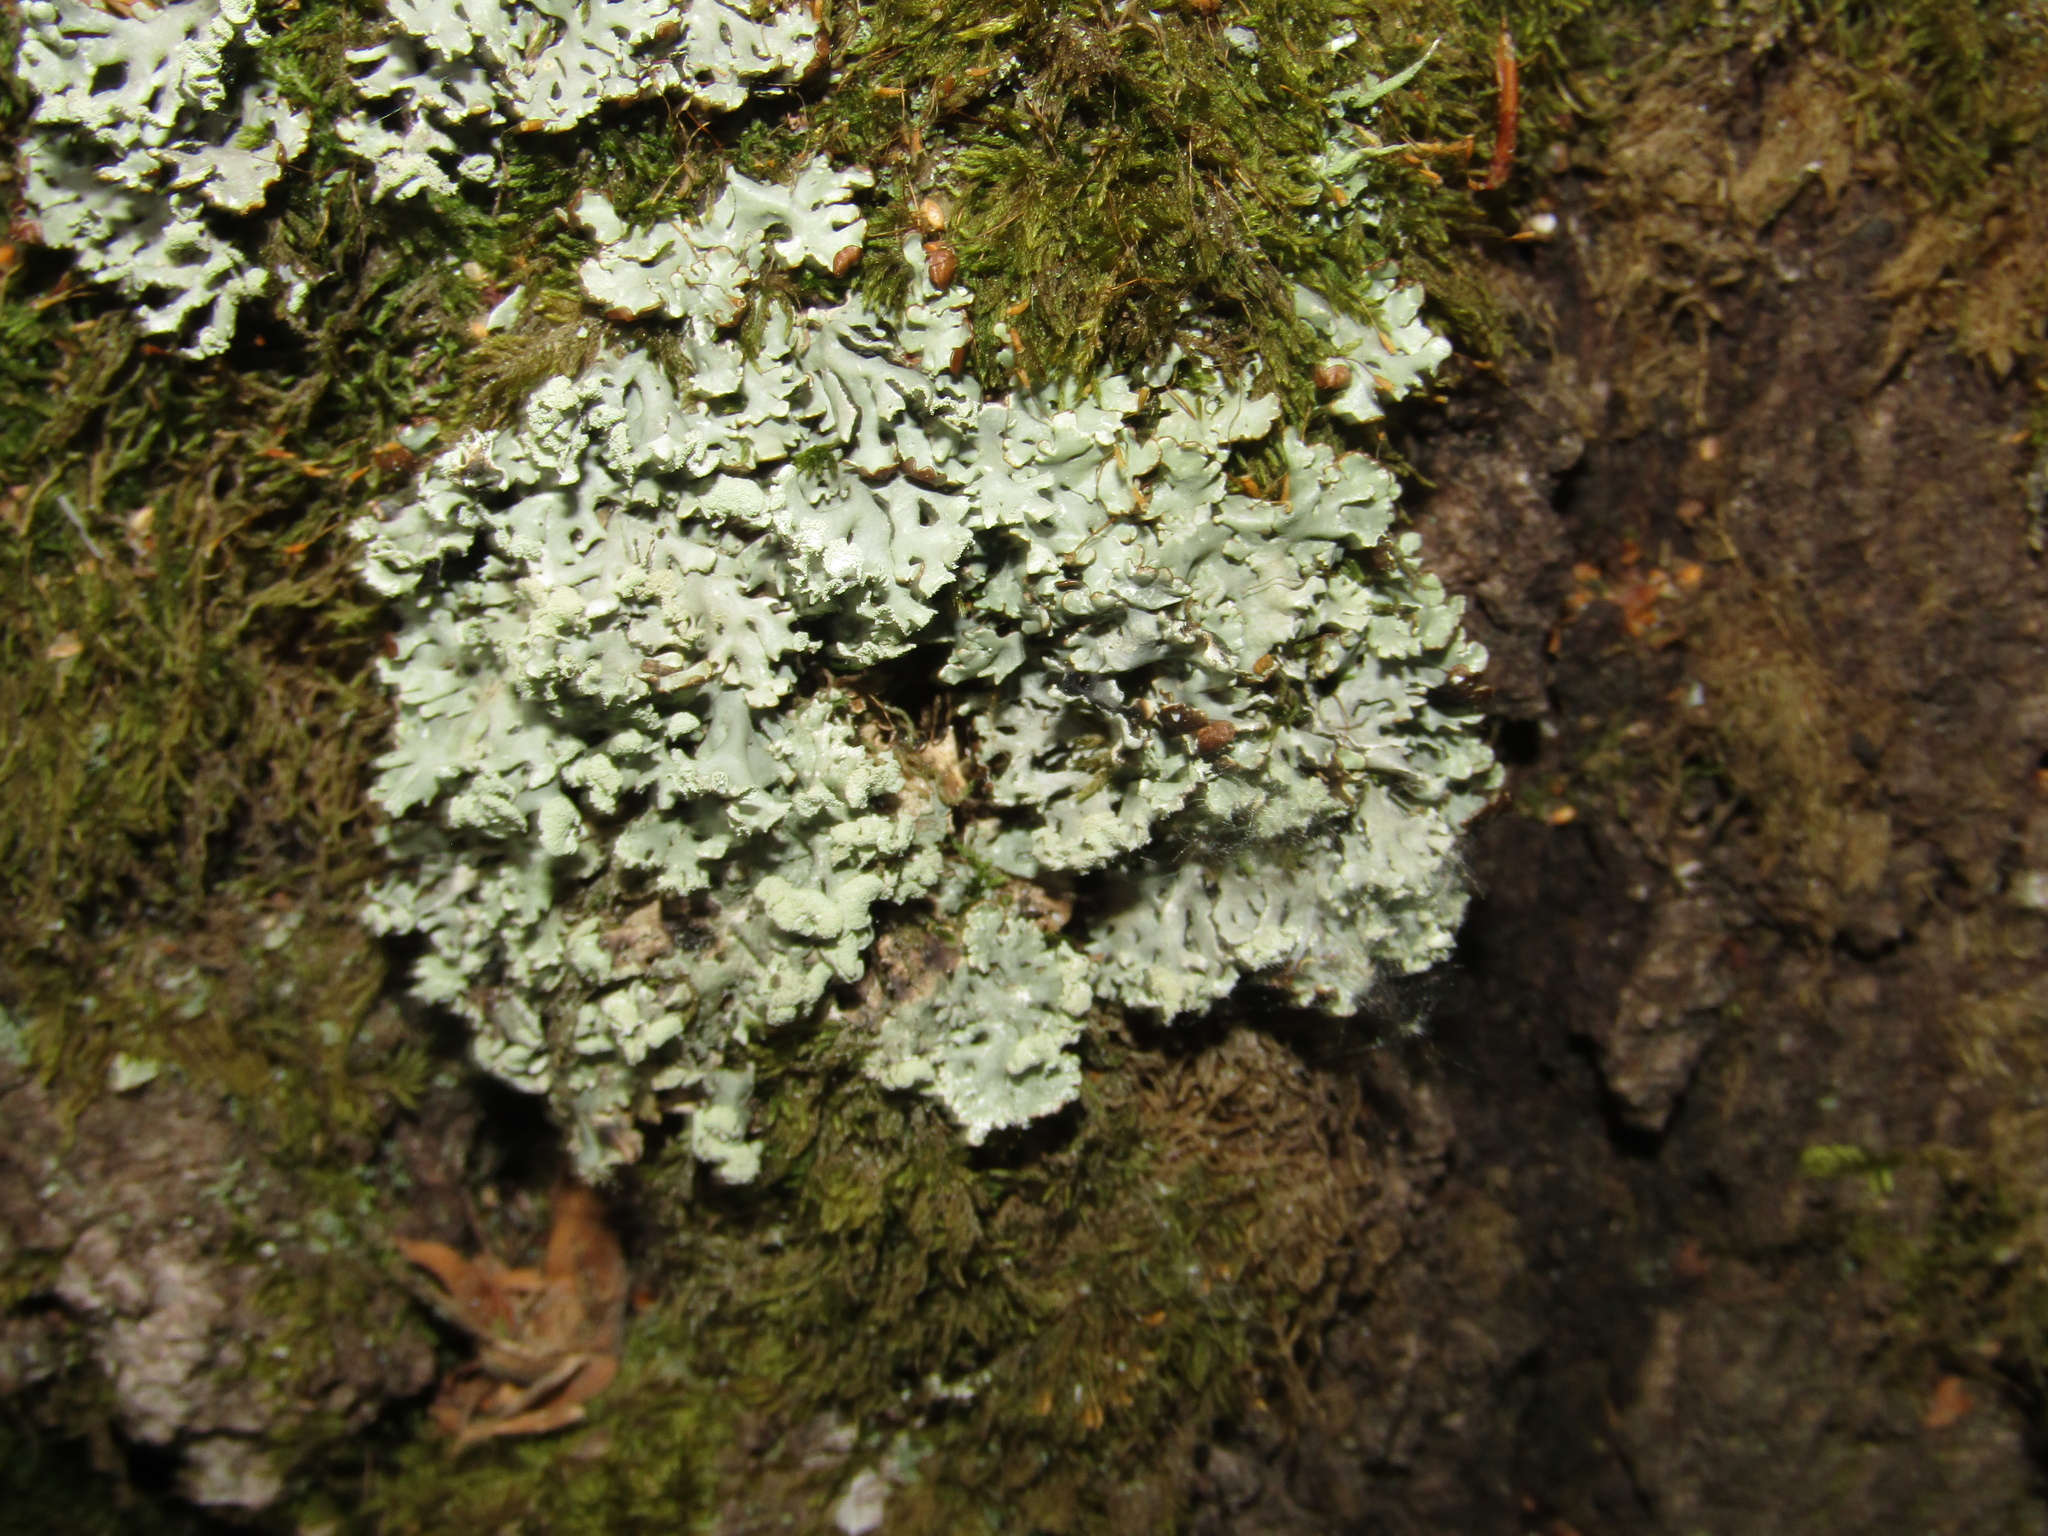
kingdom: Fungi
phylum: Ascomycota
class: Lecanoromycetes
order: Lecanorales
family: Parmeliaceae
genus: Hypogymnia
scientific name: Hypogymnia physodes
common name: Dark crottle
